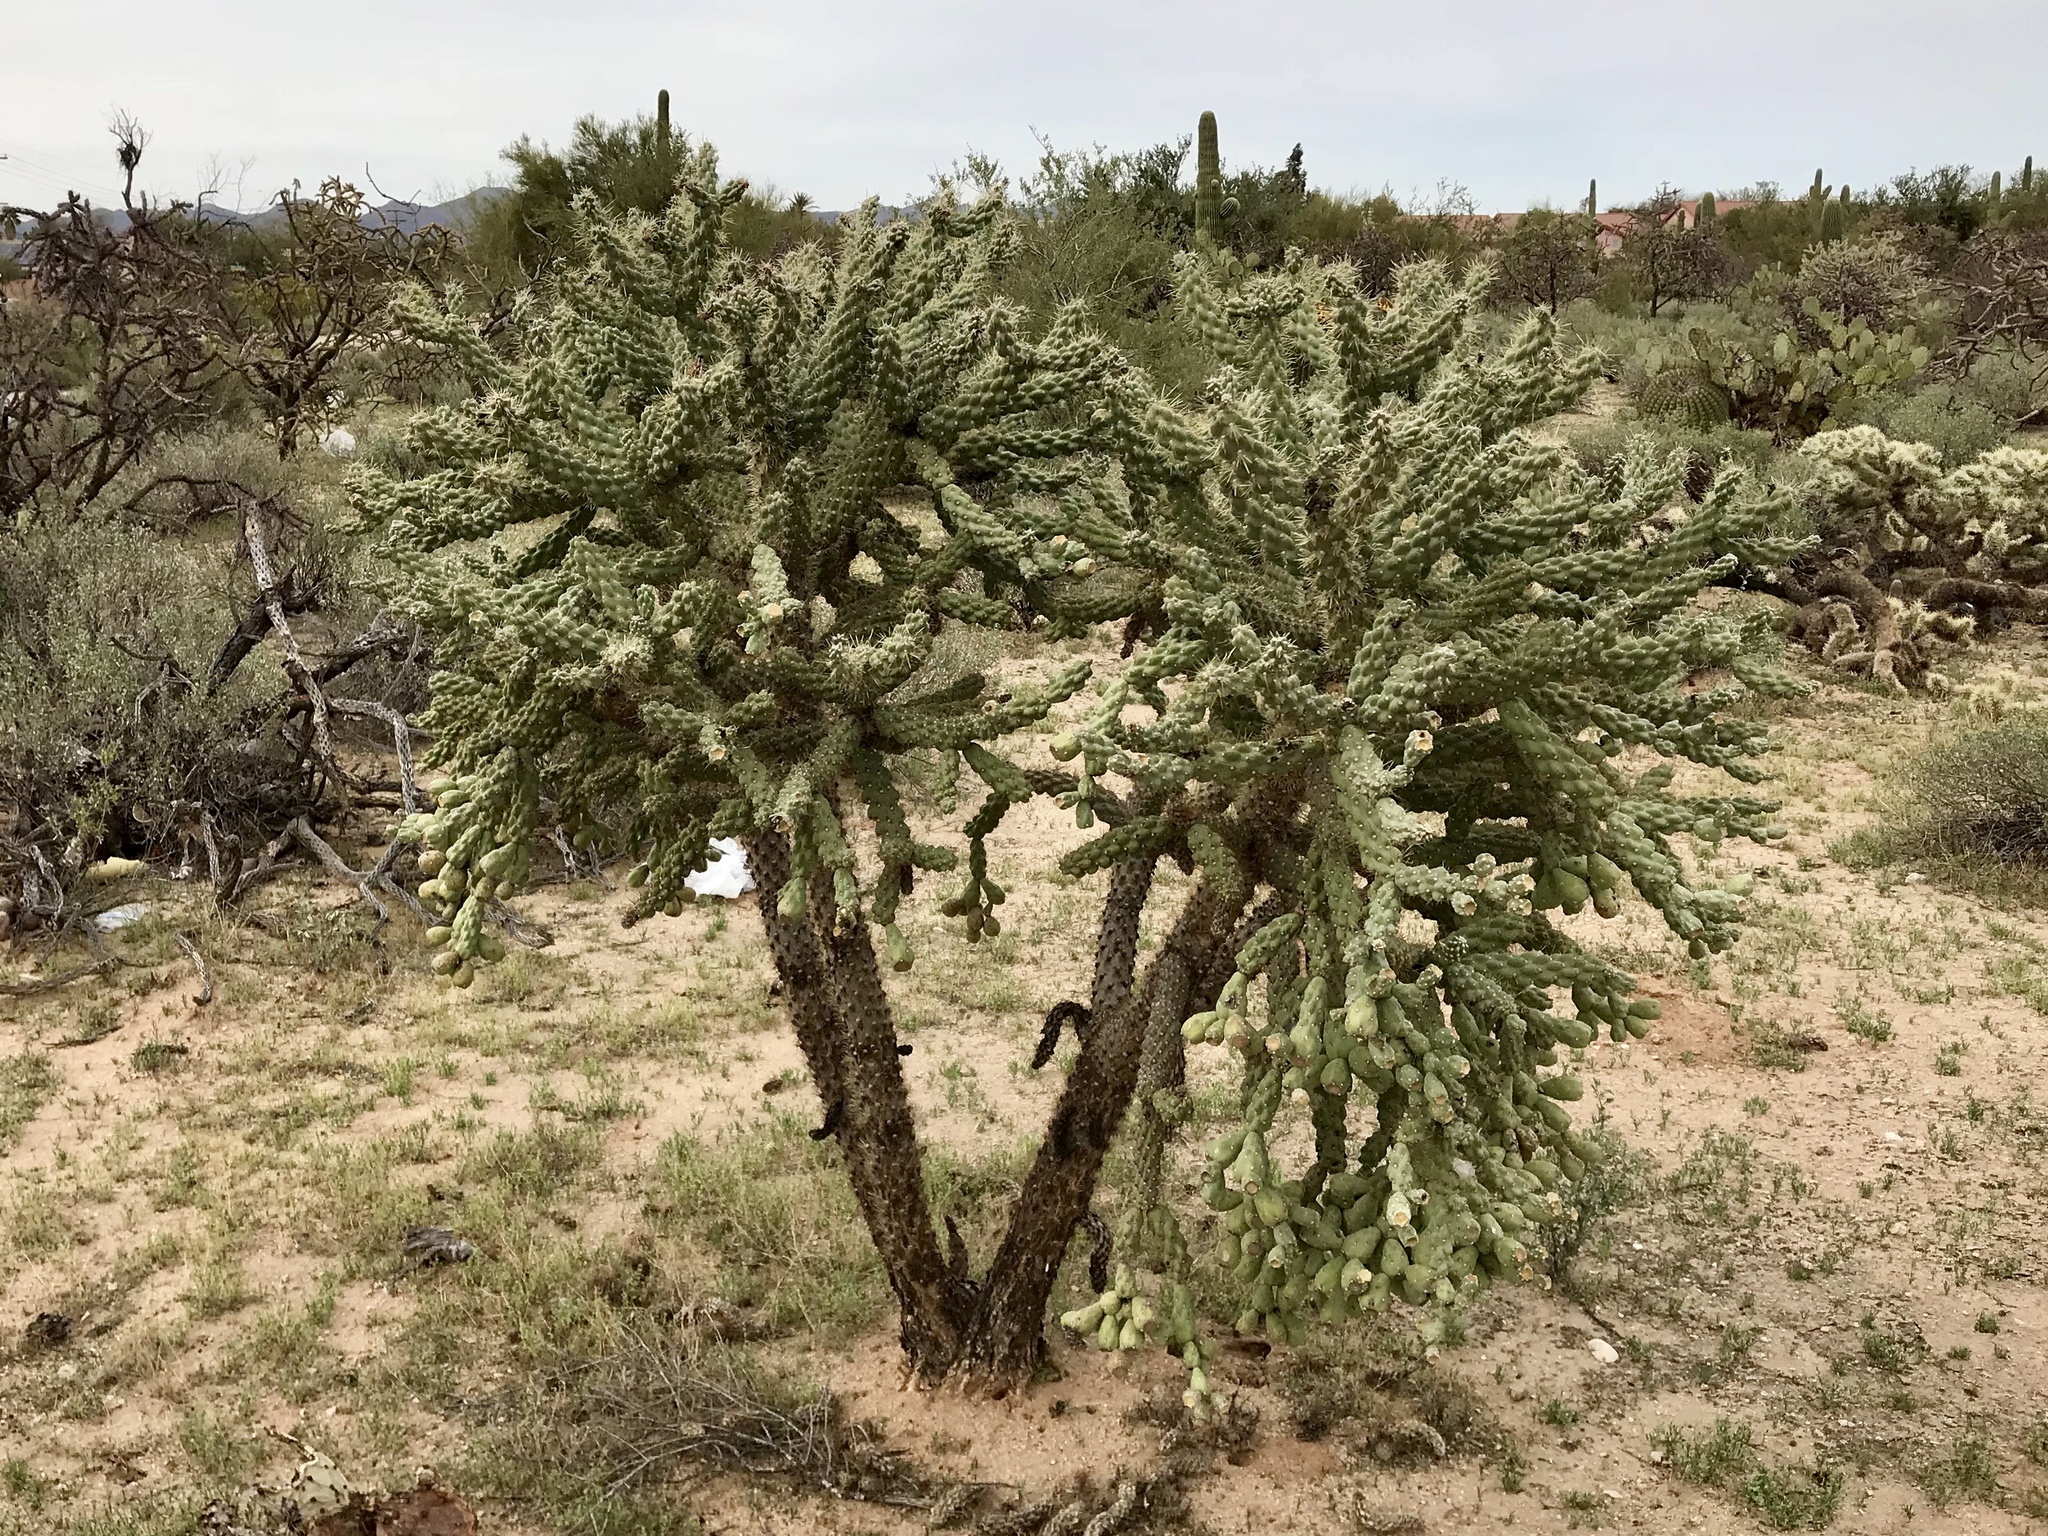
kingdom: Plantae
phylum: Tracheophyta
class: Magnoliopsida
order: Caryophyllales
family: Cactaceae
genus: Cylindropuntia
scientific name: Cylindropuntia fulgida
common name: Jumping cholla
